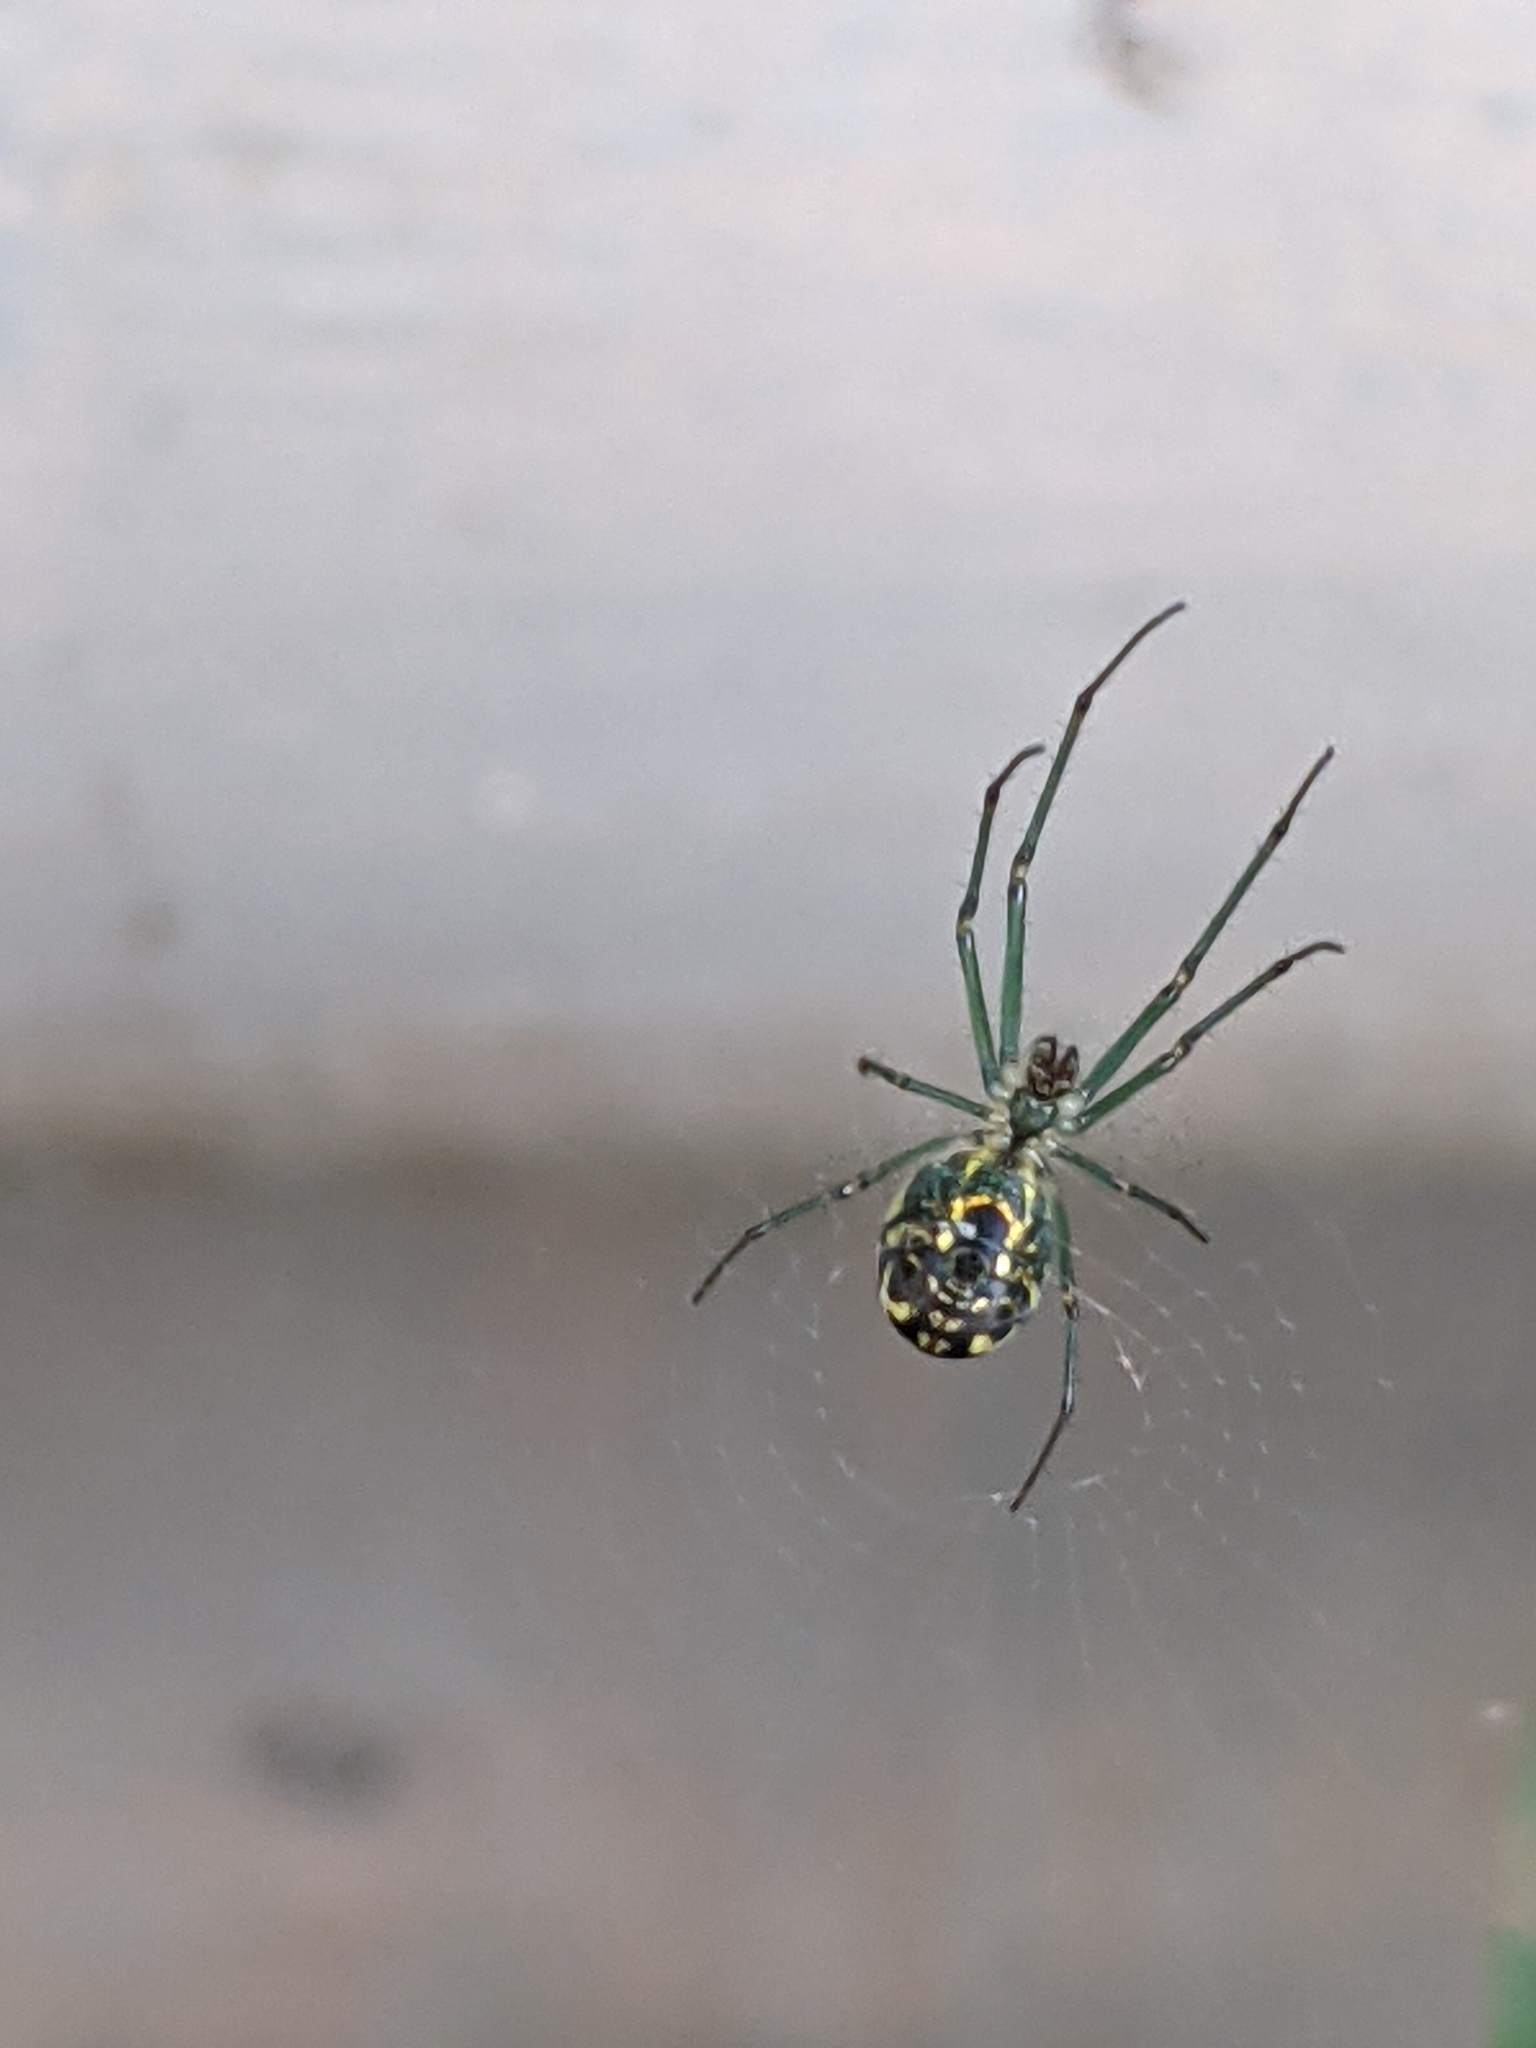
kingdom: Animalia
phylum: Arthropoda
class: Arachnida
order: Araneae
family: Tetragnathidae
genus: Leucauge
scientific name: Leucauge venusta
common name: Longjawed orb weavers
